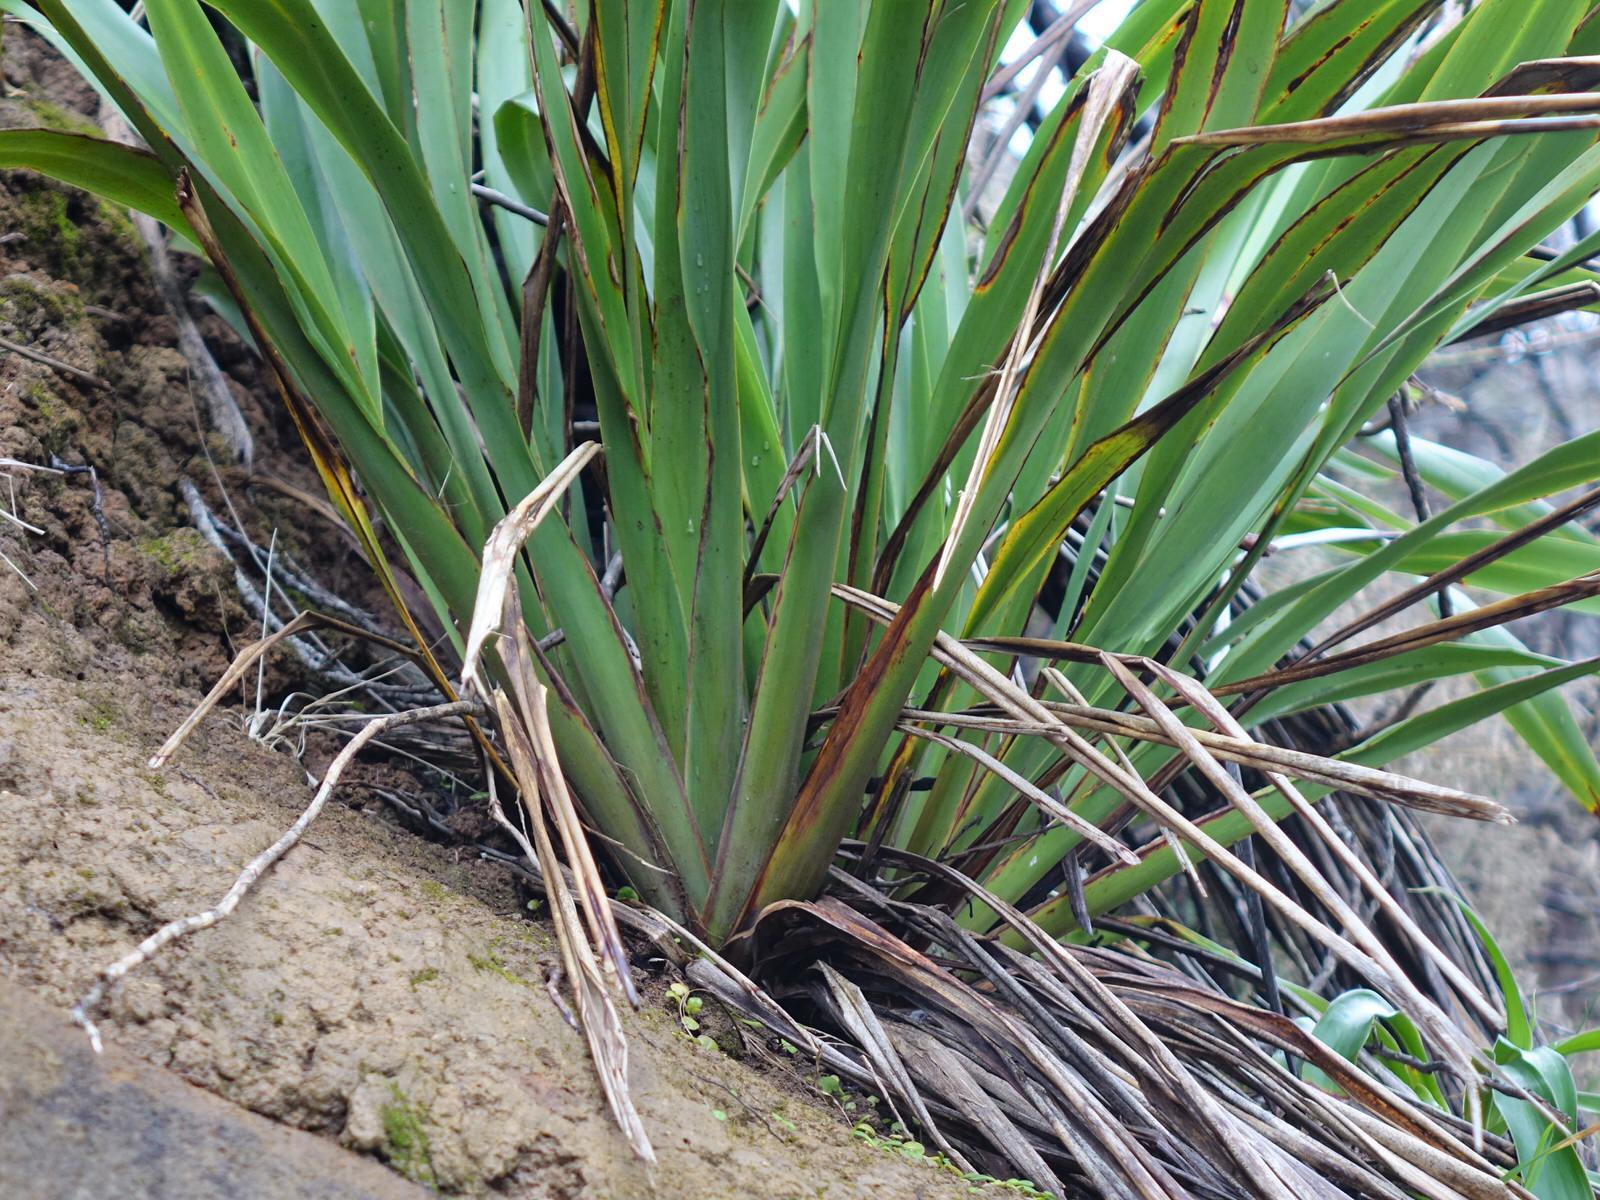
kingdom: Plantae
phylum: Tracheophyta
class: Liliopsida
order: Asparagales
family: Asphodelaceae
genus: Phormium
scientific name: Phormium tenax
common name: New zealand flax
